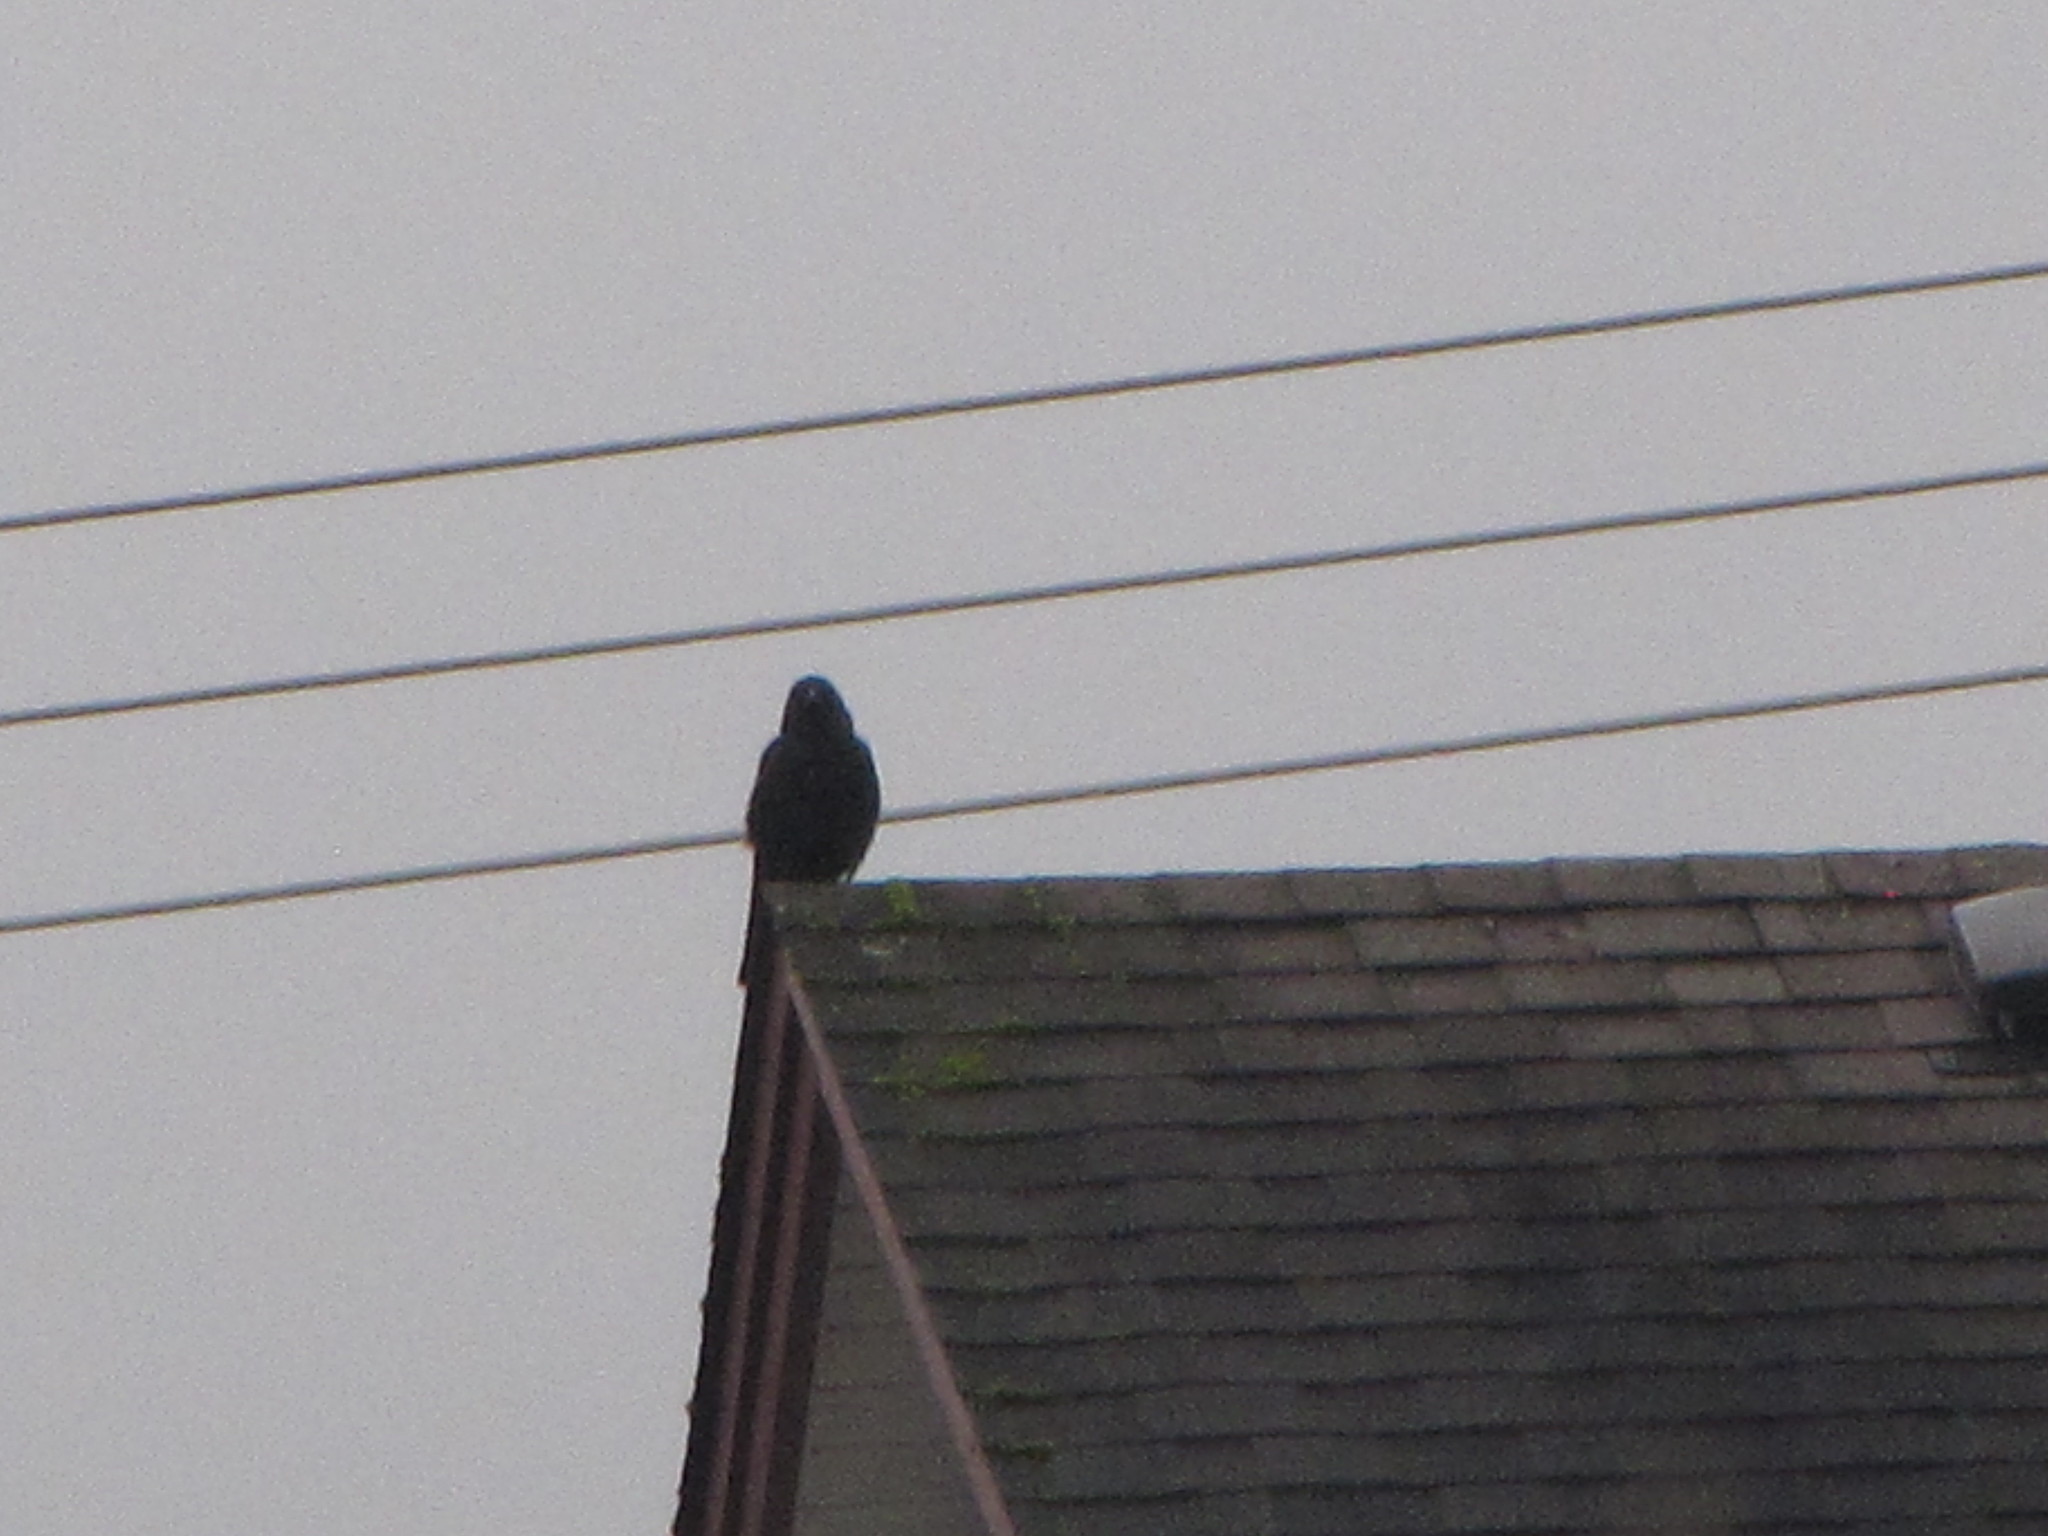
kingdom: Animalia
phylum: Chordata
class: Aves
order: Passeriformes
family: Corvidae
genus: Corvus
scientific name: Corvus brachyrhynchos
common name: American crow
